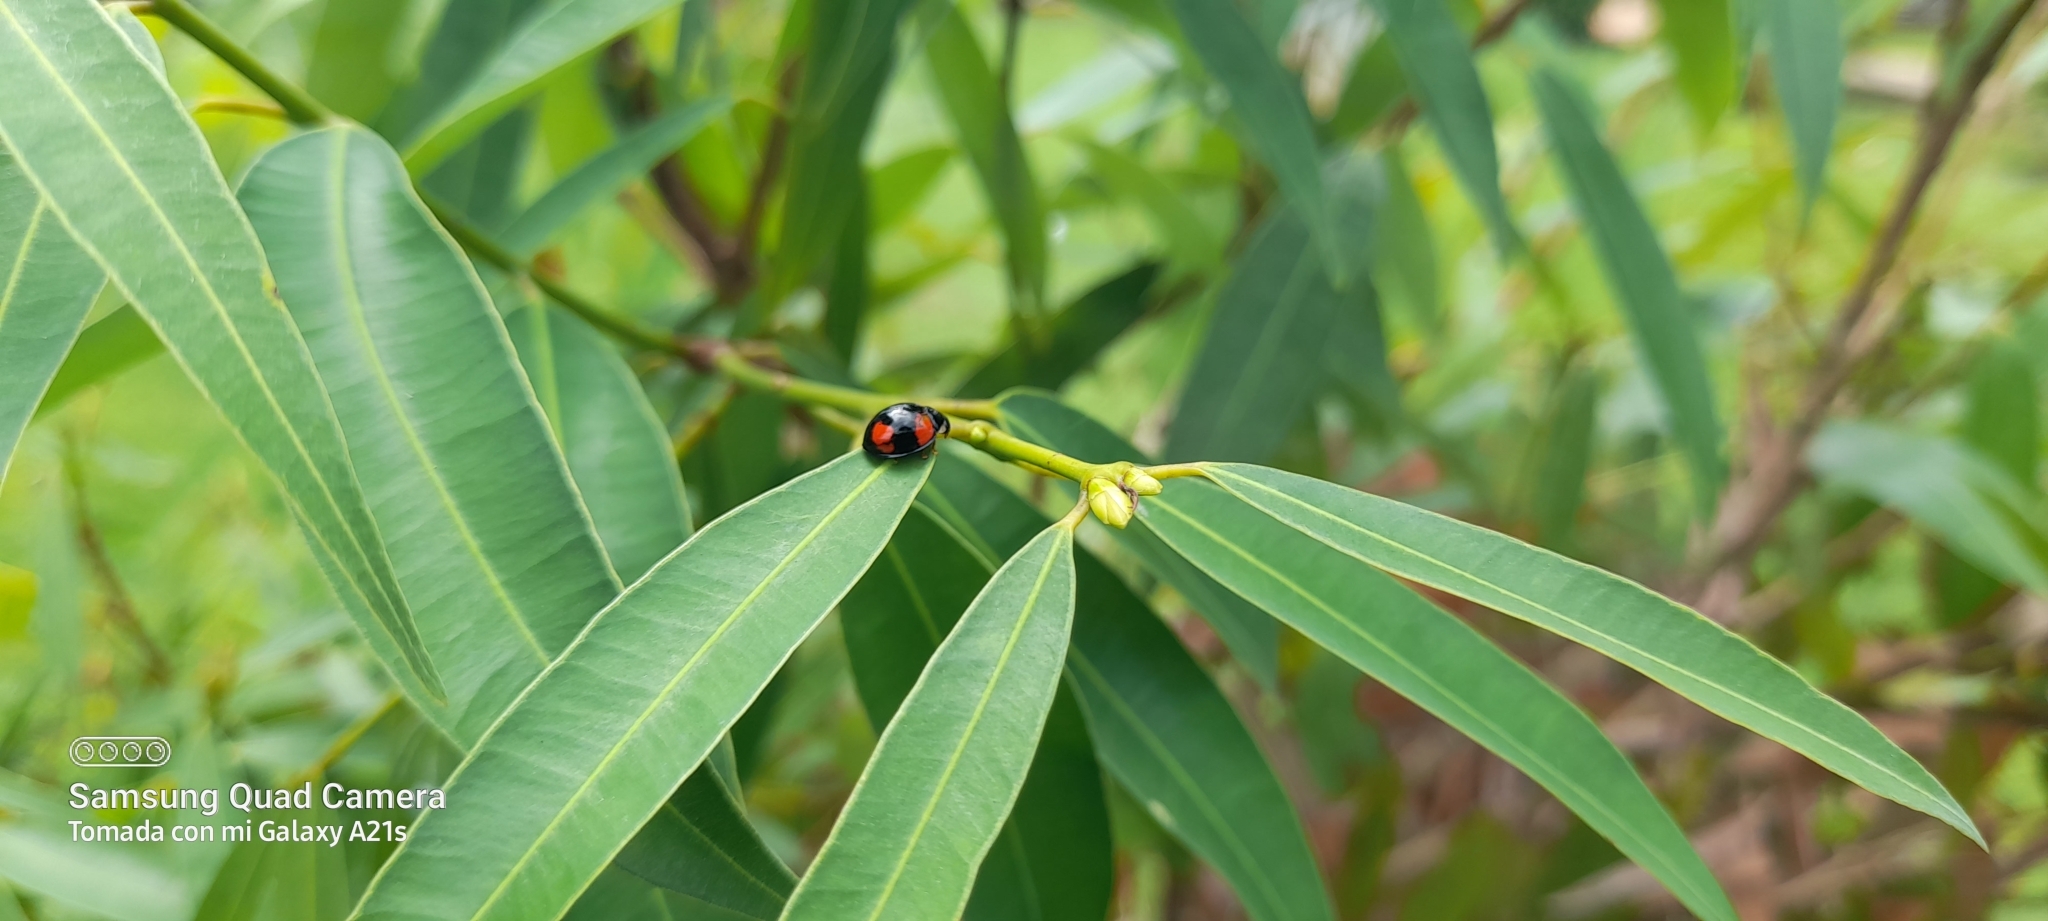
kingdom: Animalia
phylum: Arthropoda
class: Insecta
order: Coleoptera
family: Coccinellidae
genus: Cheilomenes
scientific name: Cheilomenes sexmaculata
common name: Ladybird beetle
